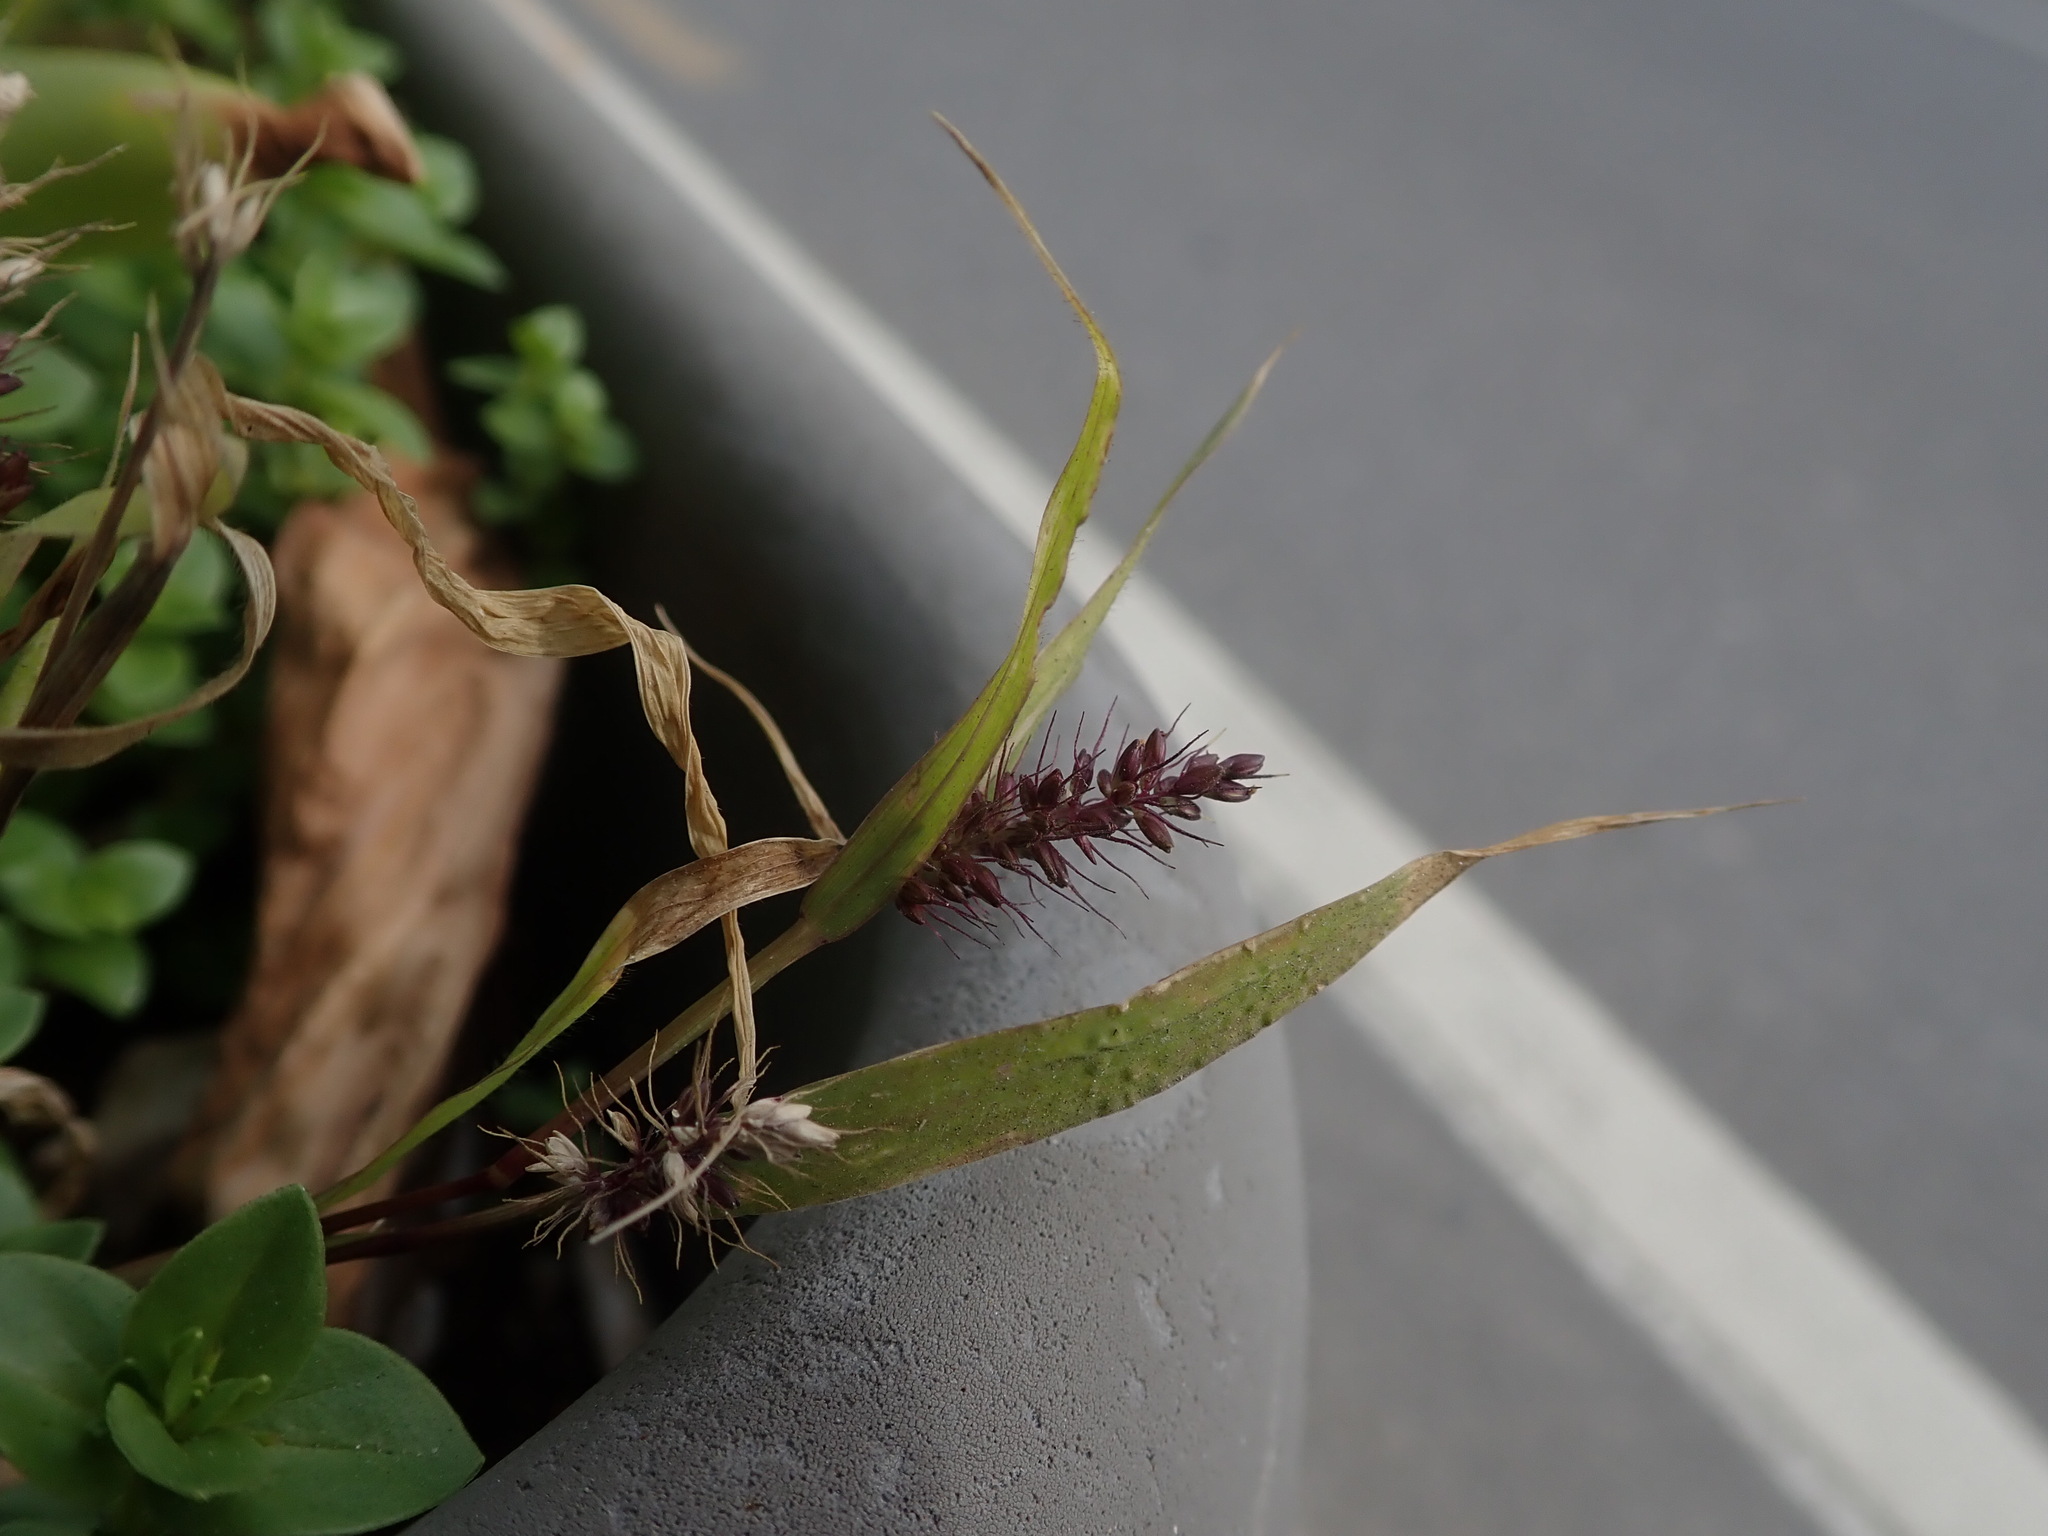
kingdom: Plantae
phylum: Tracheophyta
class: Liliopsida
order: Poales
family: Poaceae
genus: Setaria
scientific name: Setaria adhaerens
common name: Adherent bristle-grass
